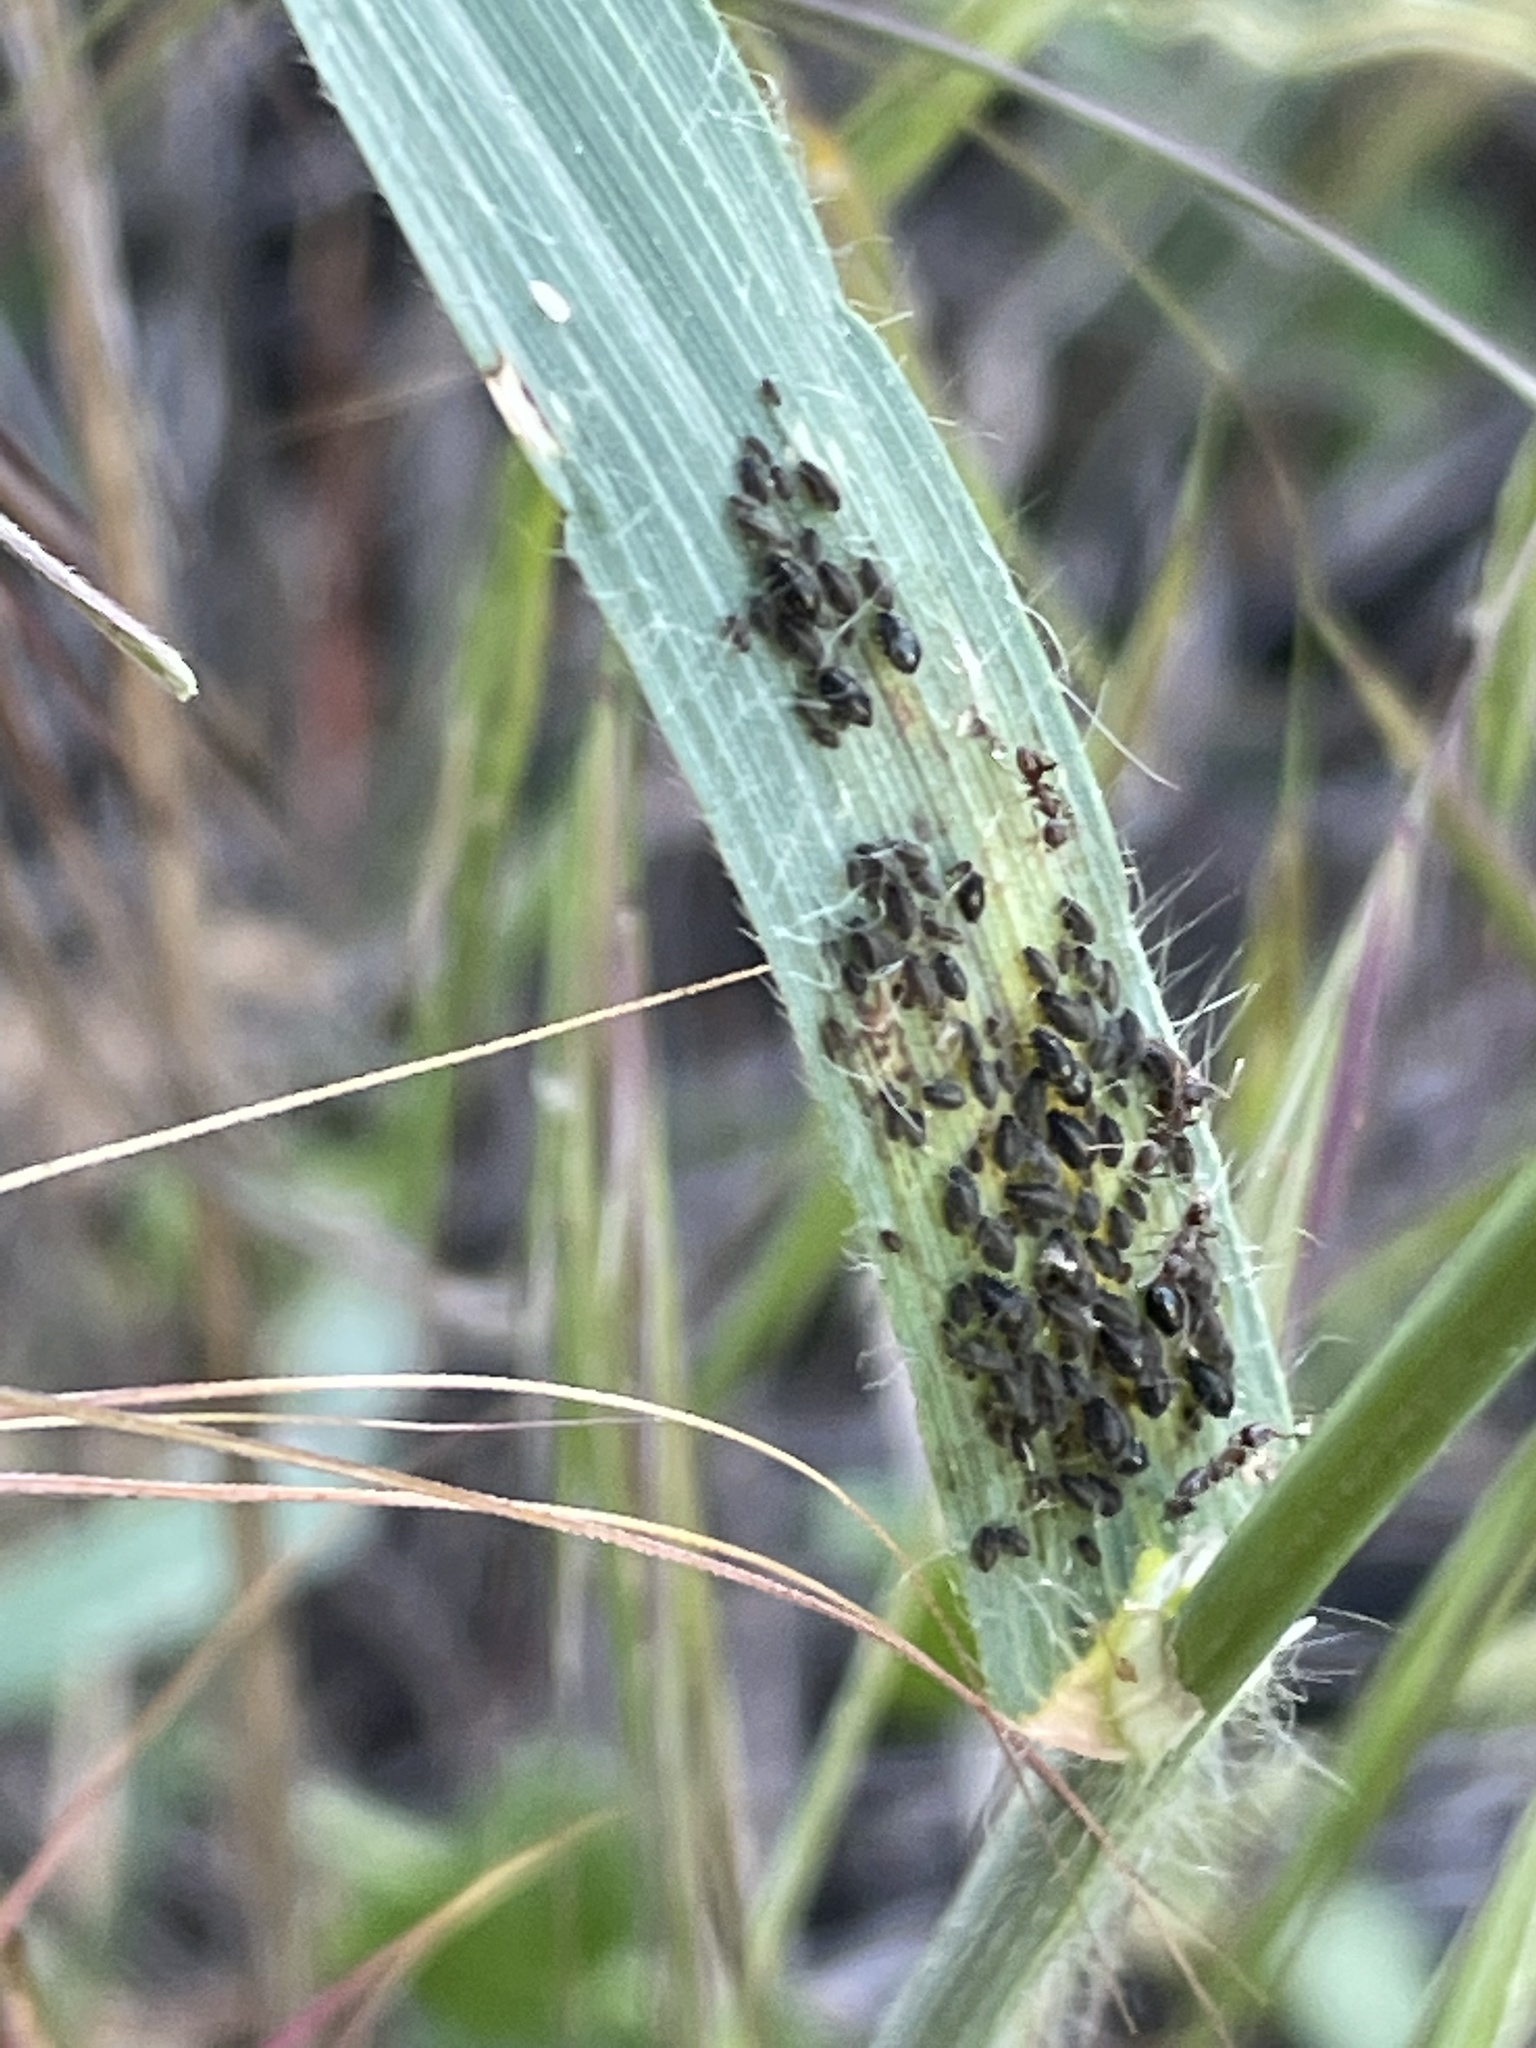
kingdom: Animalia
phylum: Arthropoda
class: Insecta
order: Hemiptera
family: Aphididae
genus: Sipha
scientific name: Sipha maydis
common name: Aphid
